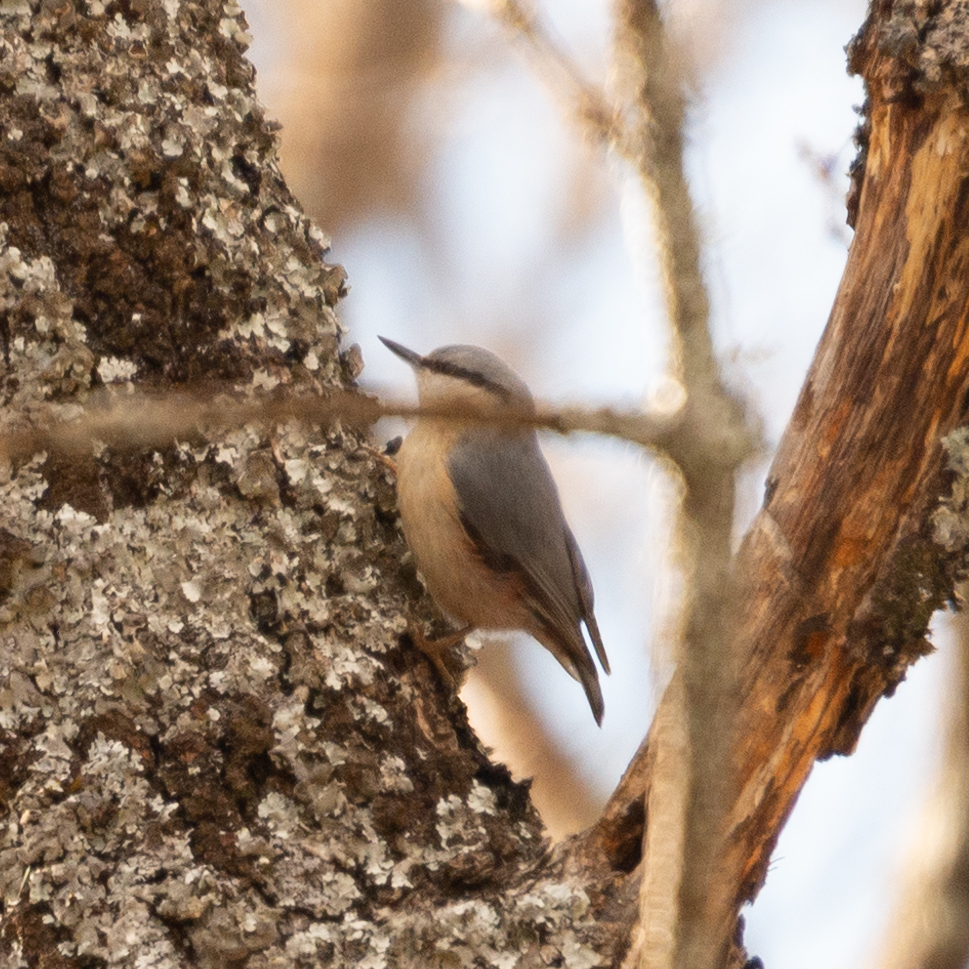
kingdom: Animalia
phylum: Chordata
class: Aves
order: Passeriformes
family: Sittidae
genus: Sitta
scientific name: Sitta europaea
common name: Eurasian nuthatch
